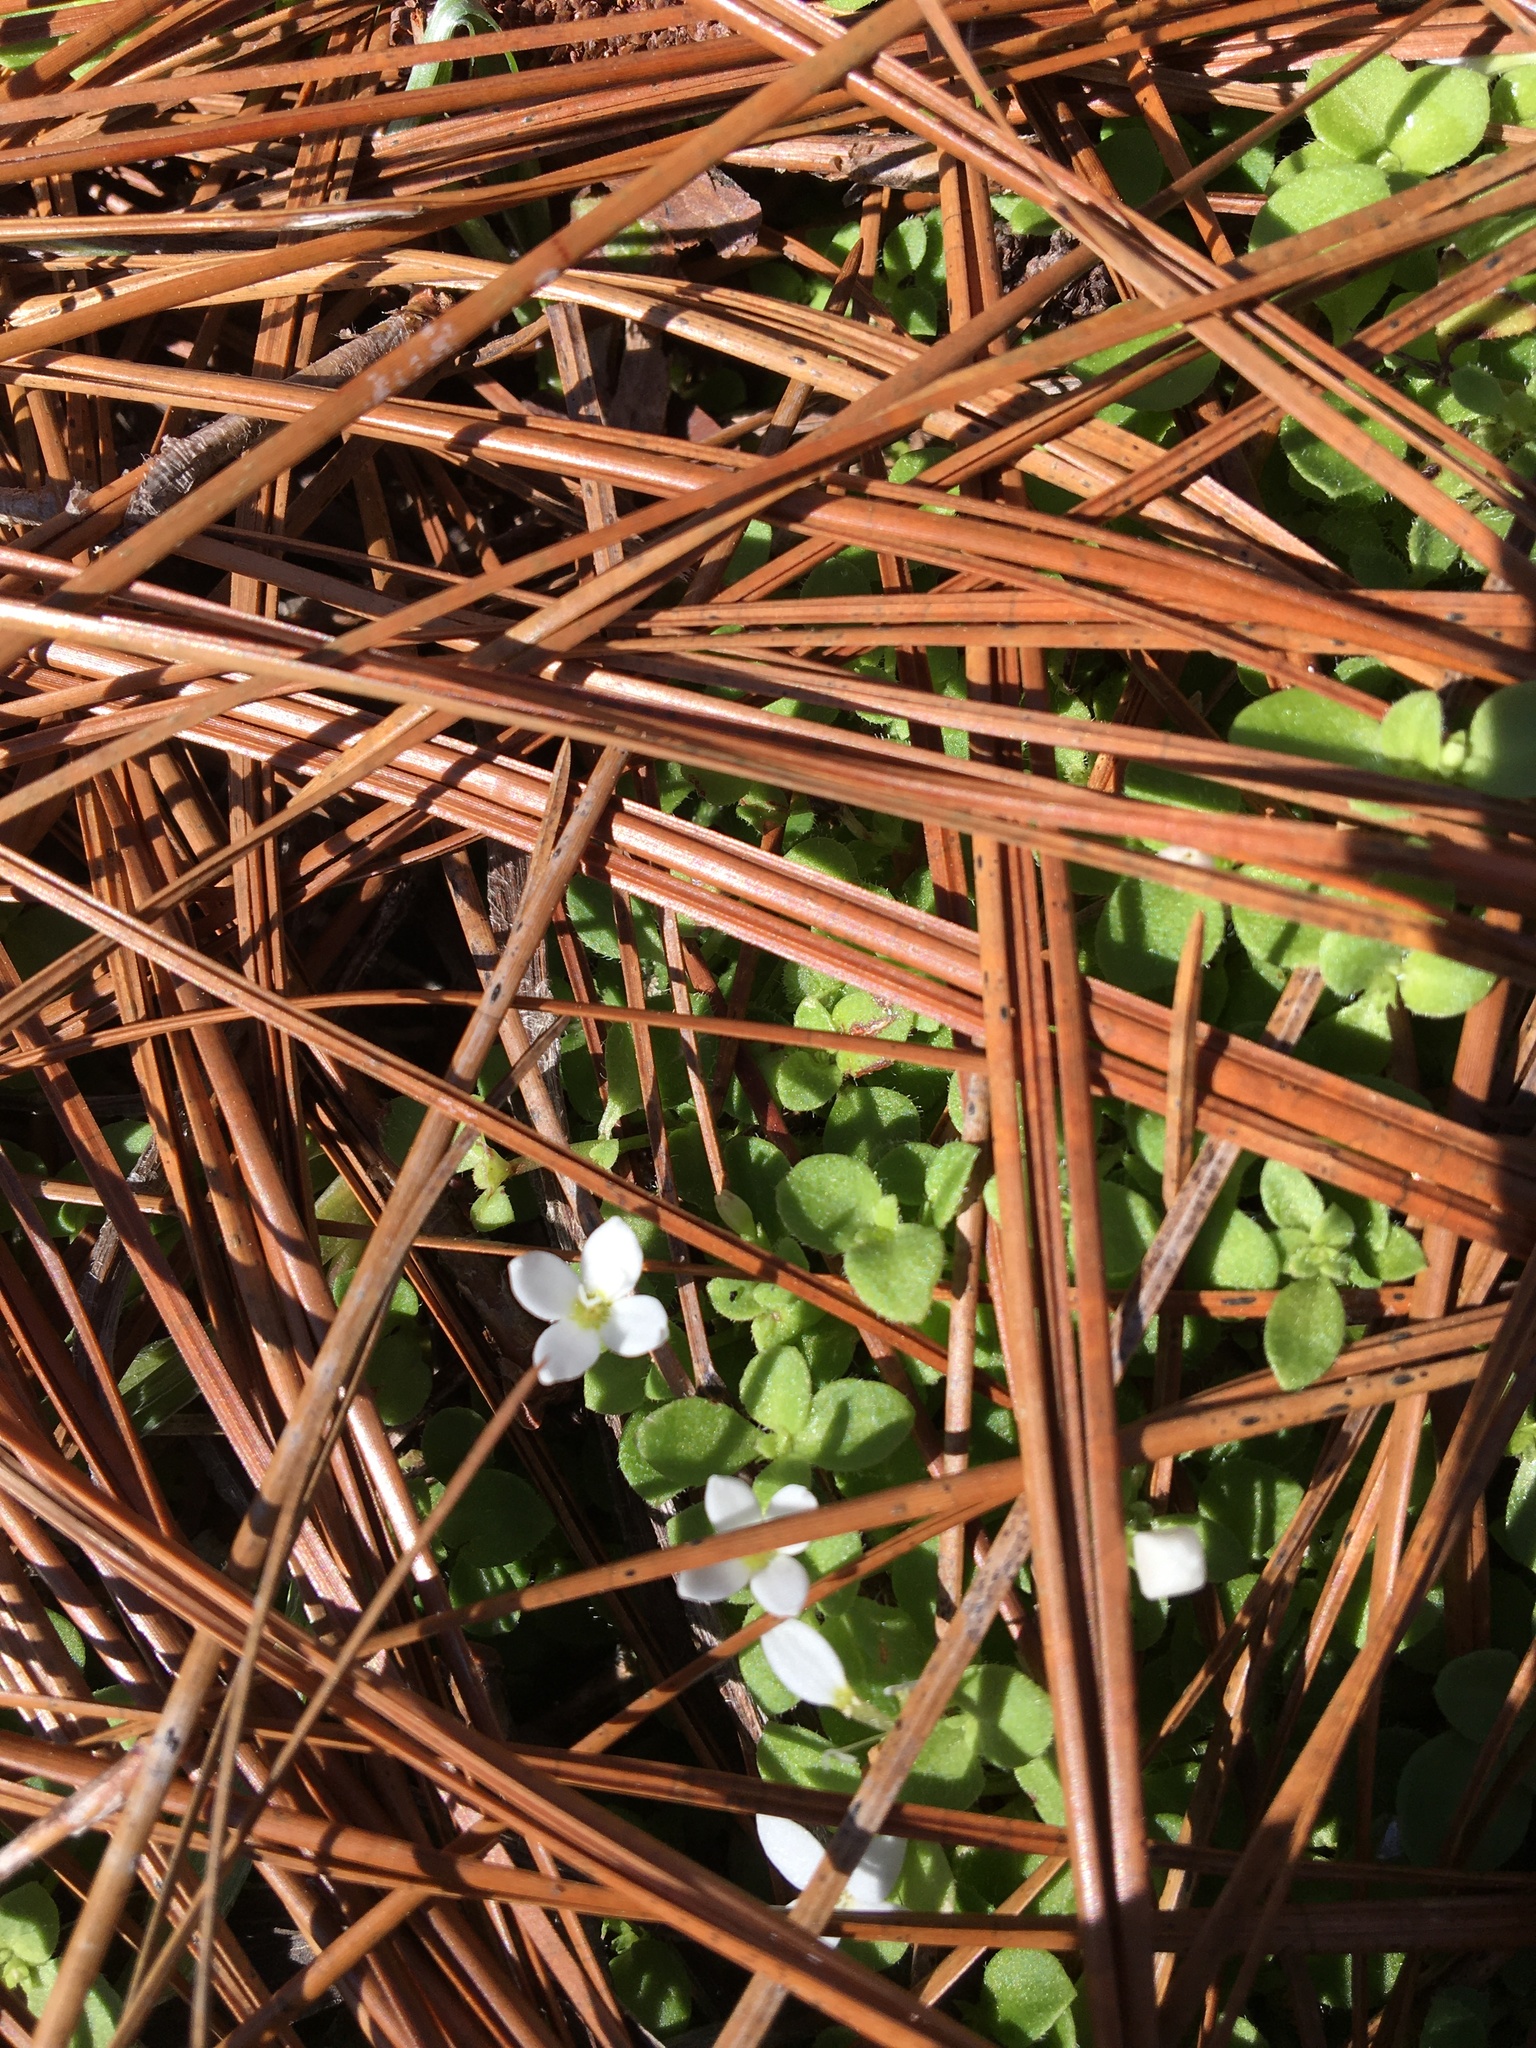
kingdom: Plantae
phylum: Tracheophyta
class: Magnoliopsida
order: Gentianales
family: Rubiaceae
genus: Houstonia
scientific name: Houstonia procumbens
